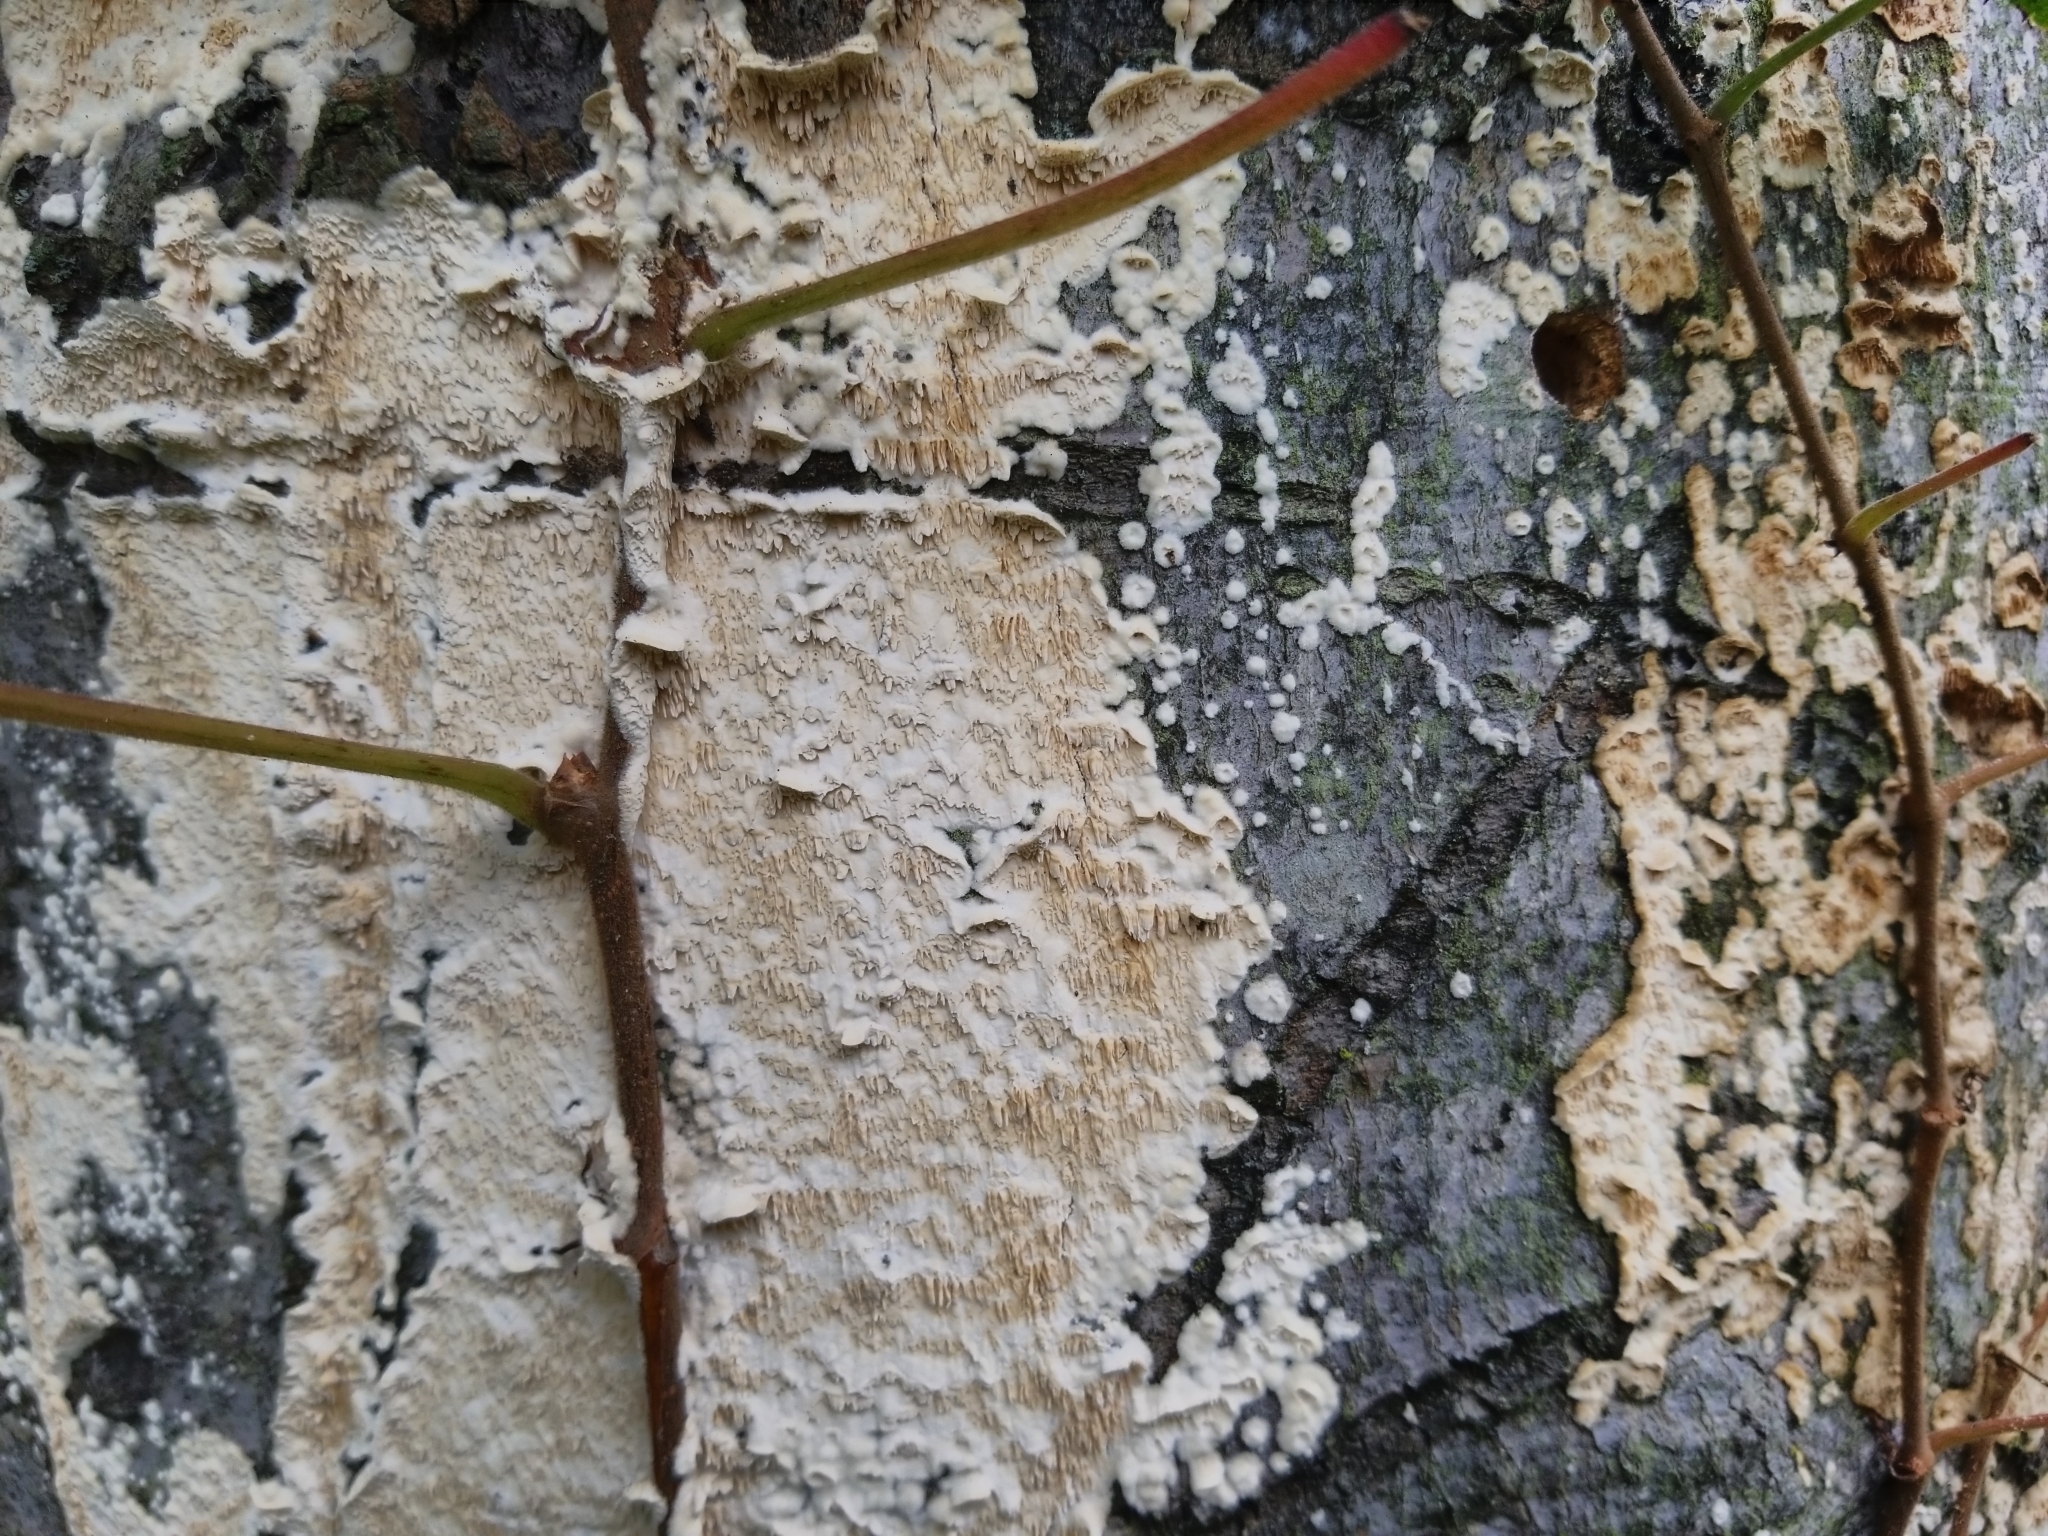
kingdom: Fungi
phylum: Basidiomycota
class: Agaricomycetes
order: Polyporales
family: Irpicaceae
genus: Irpex
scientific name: Irpex lacteus
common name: Milk-white toothed polypore
